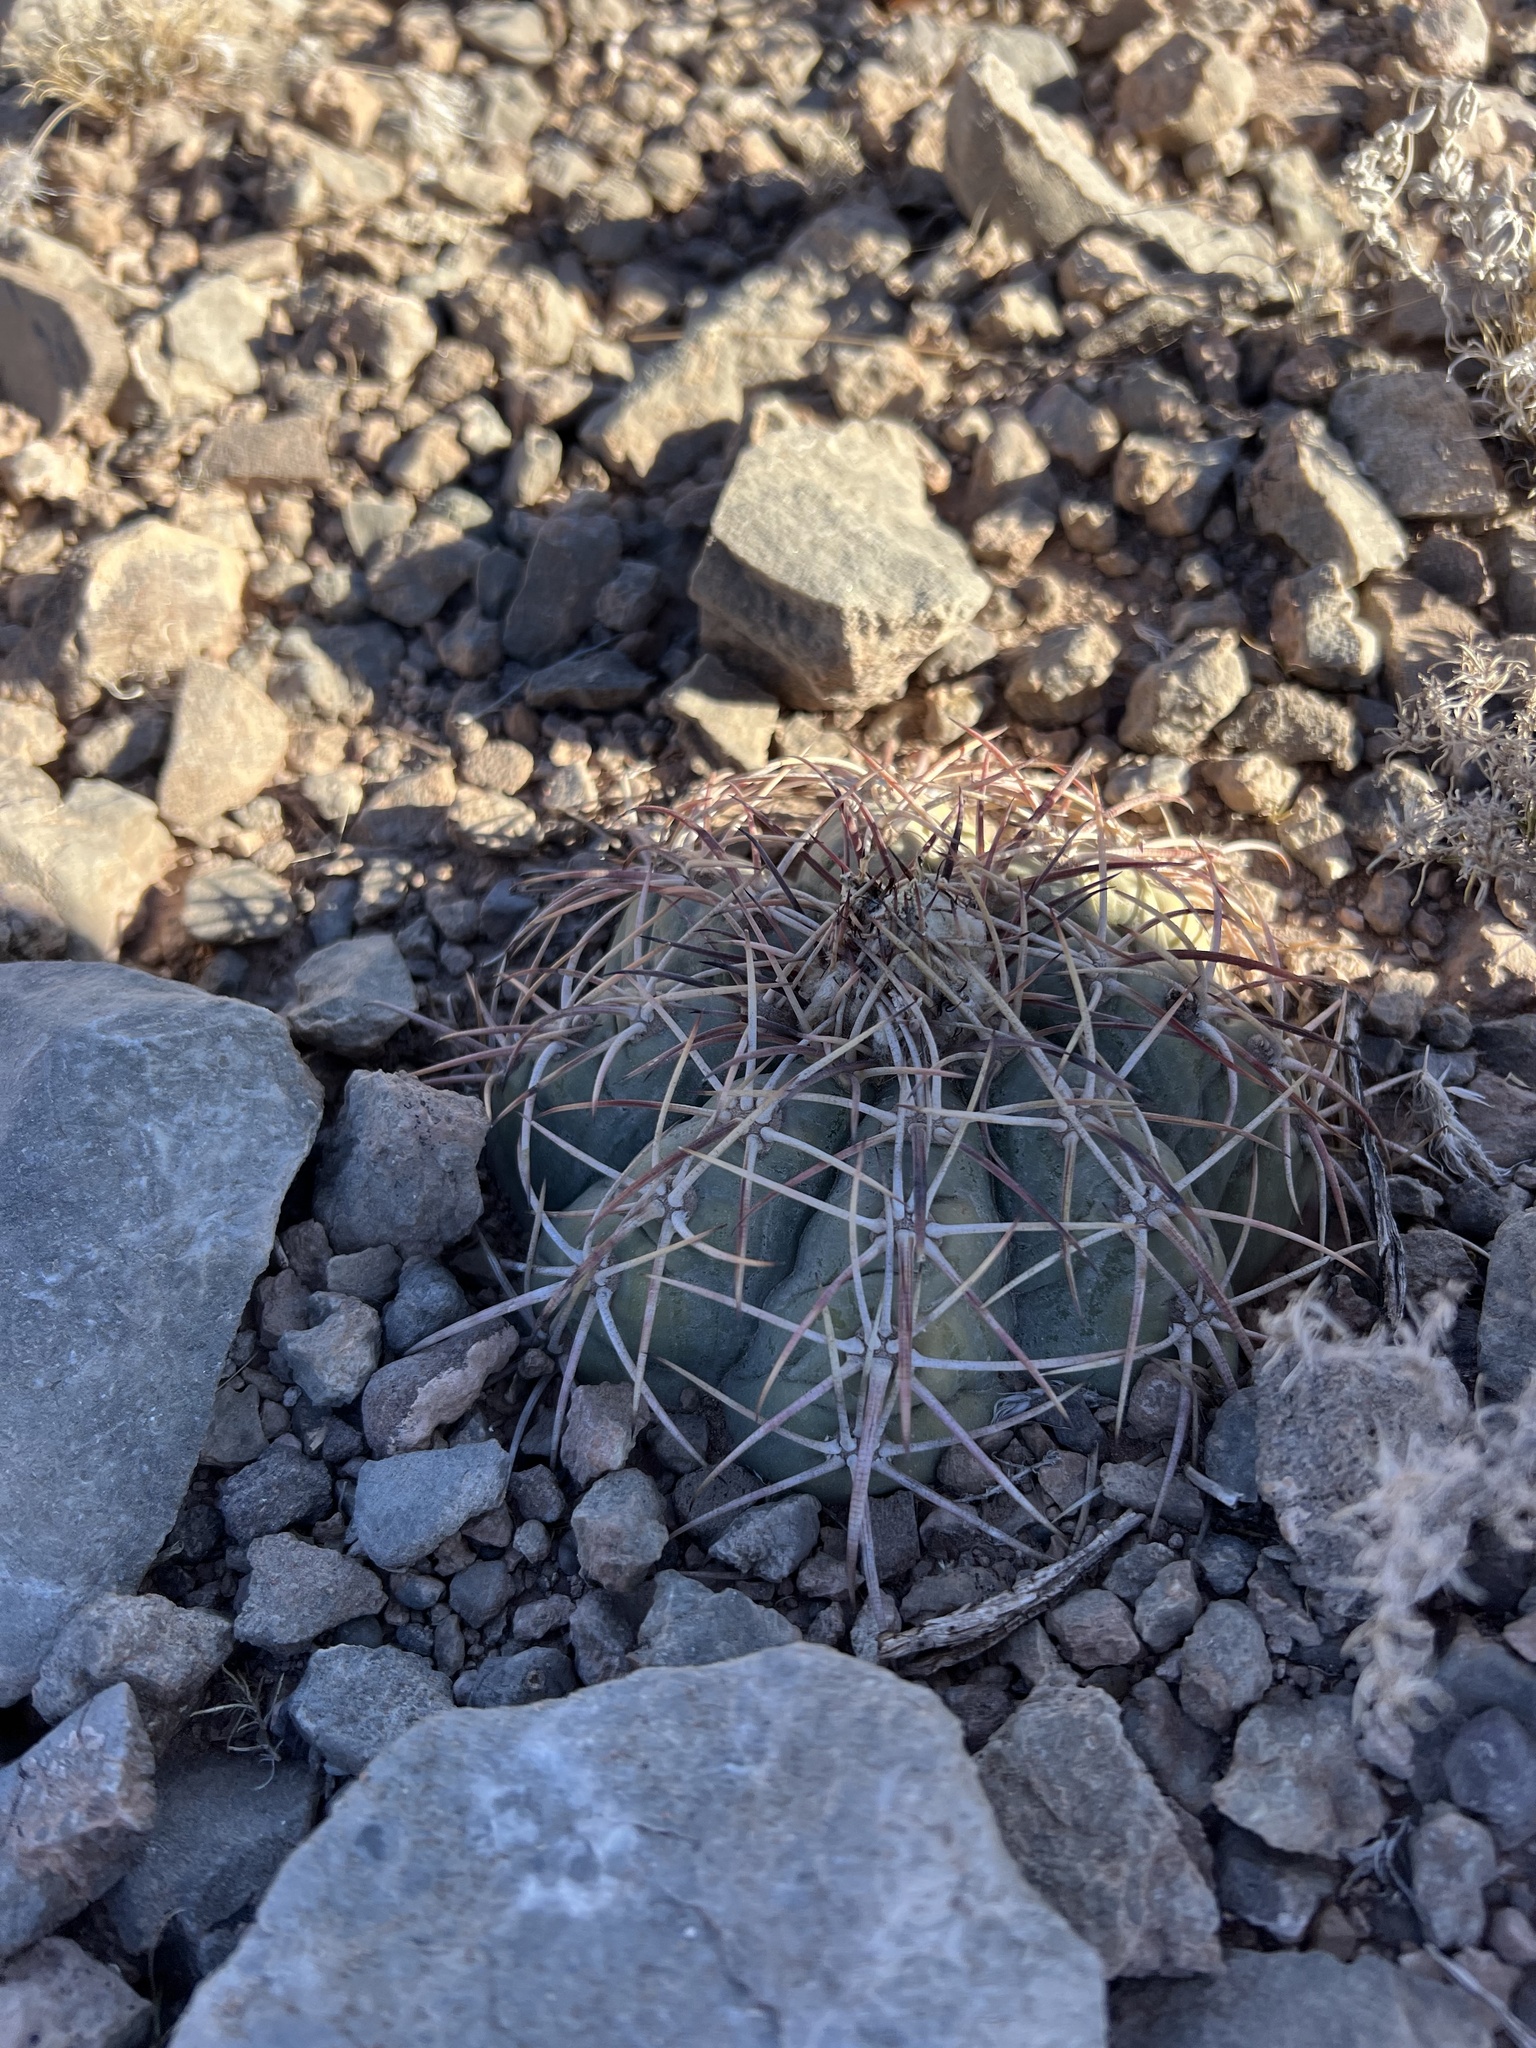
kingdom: Plantae
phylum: Tracheophyta
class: Magnoliopsida
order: Caryophyllales
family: Cactaceae
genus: Echinocactus
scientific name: Echinocactus horizonthalonius
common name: Devilshead
